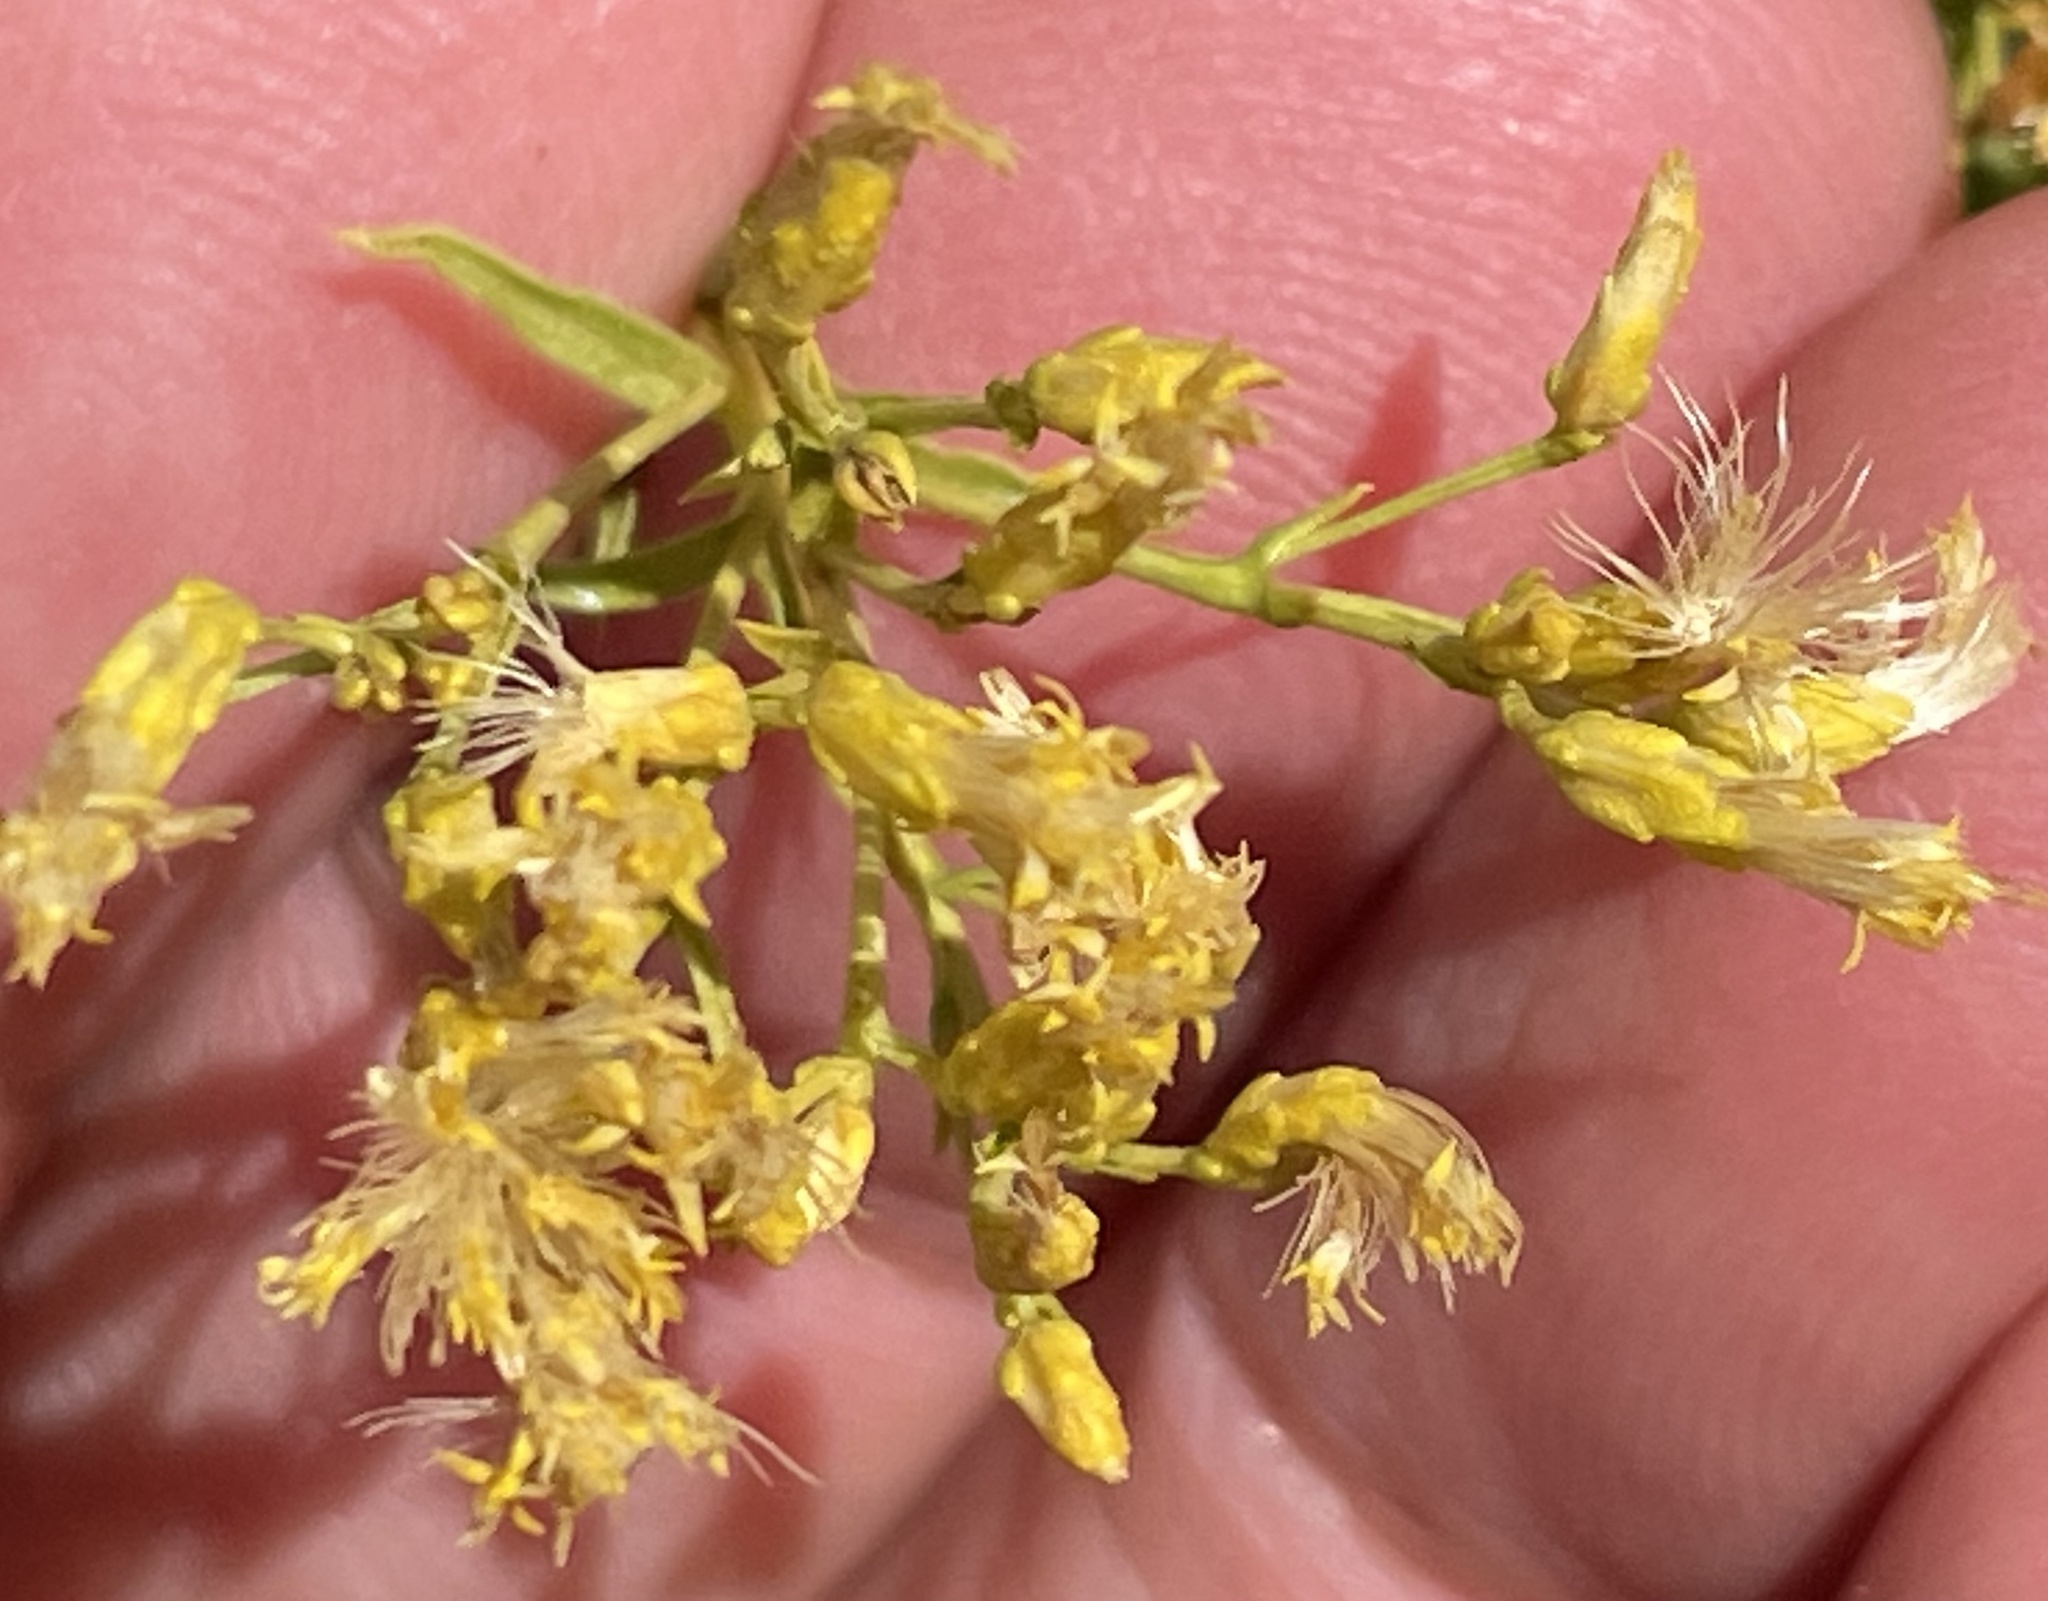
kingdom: Plantae
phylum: Tracheophyta
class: Magnoliopsida
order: Asterales
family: Asteraceae
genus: Chrysothamnus
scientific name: Chrysothamnus viscidiflorus
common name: Yellow rabbitbrush
